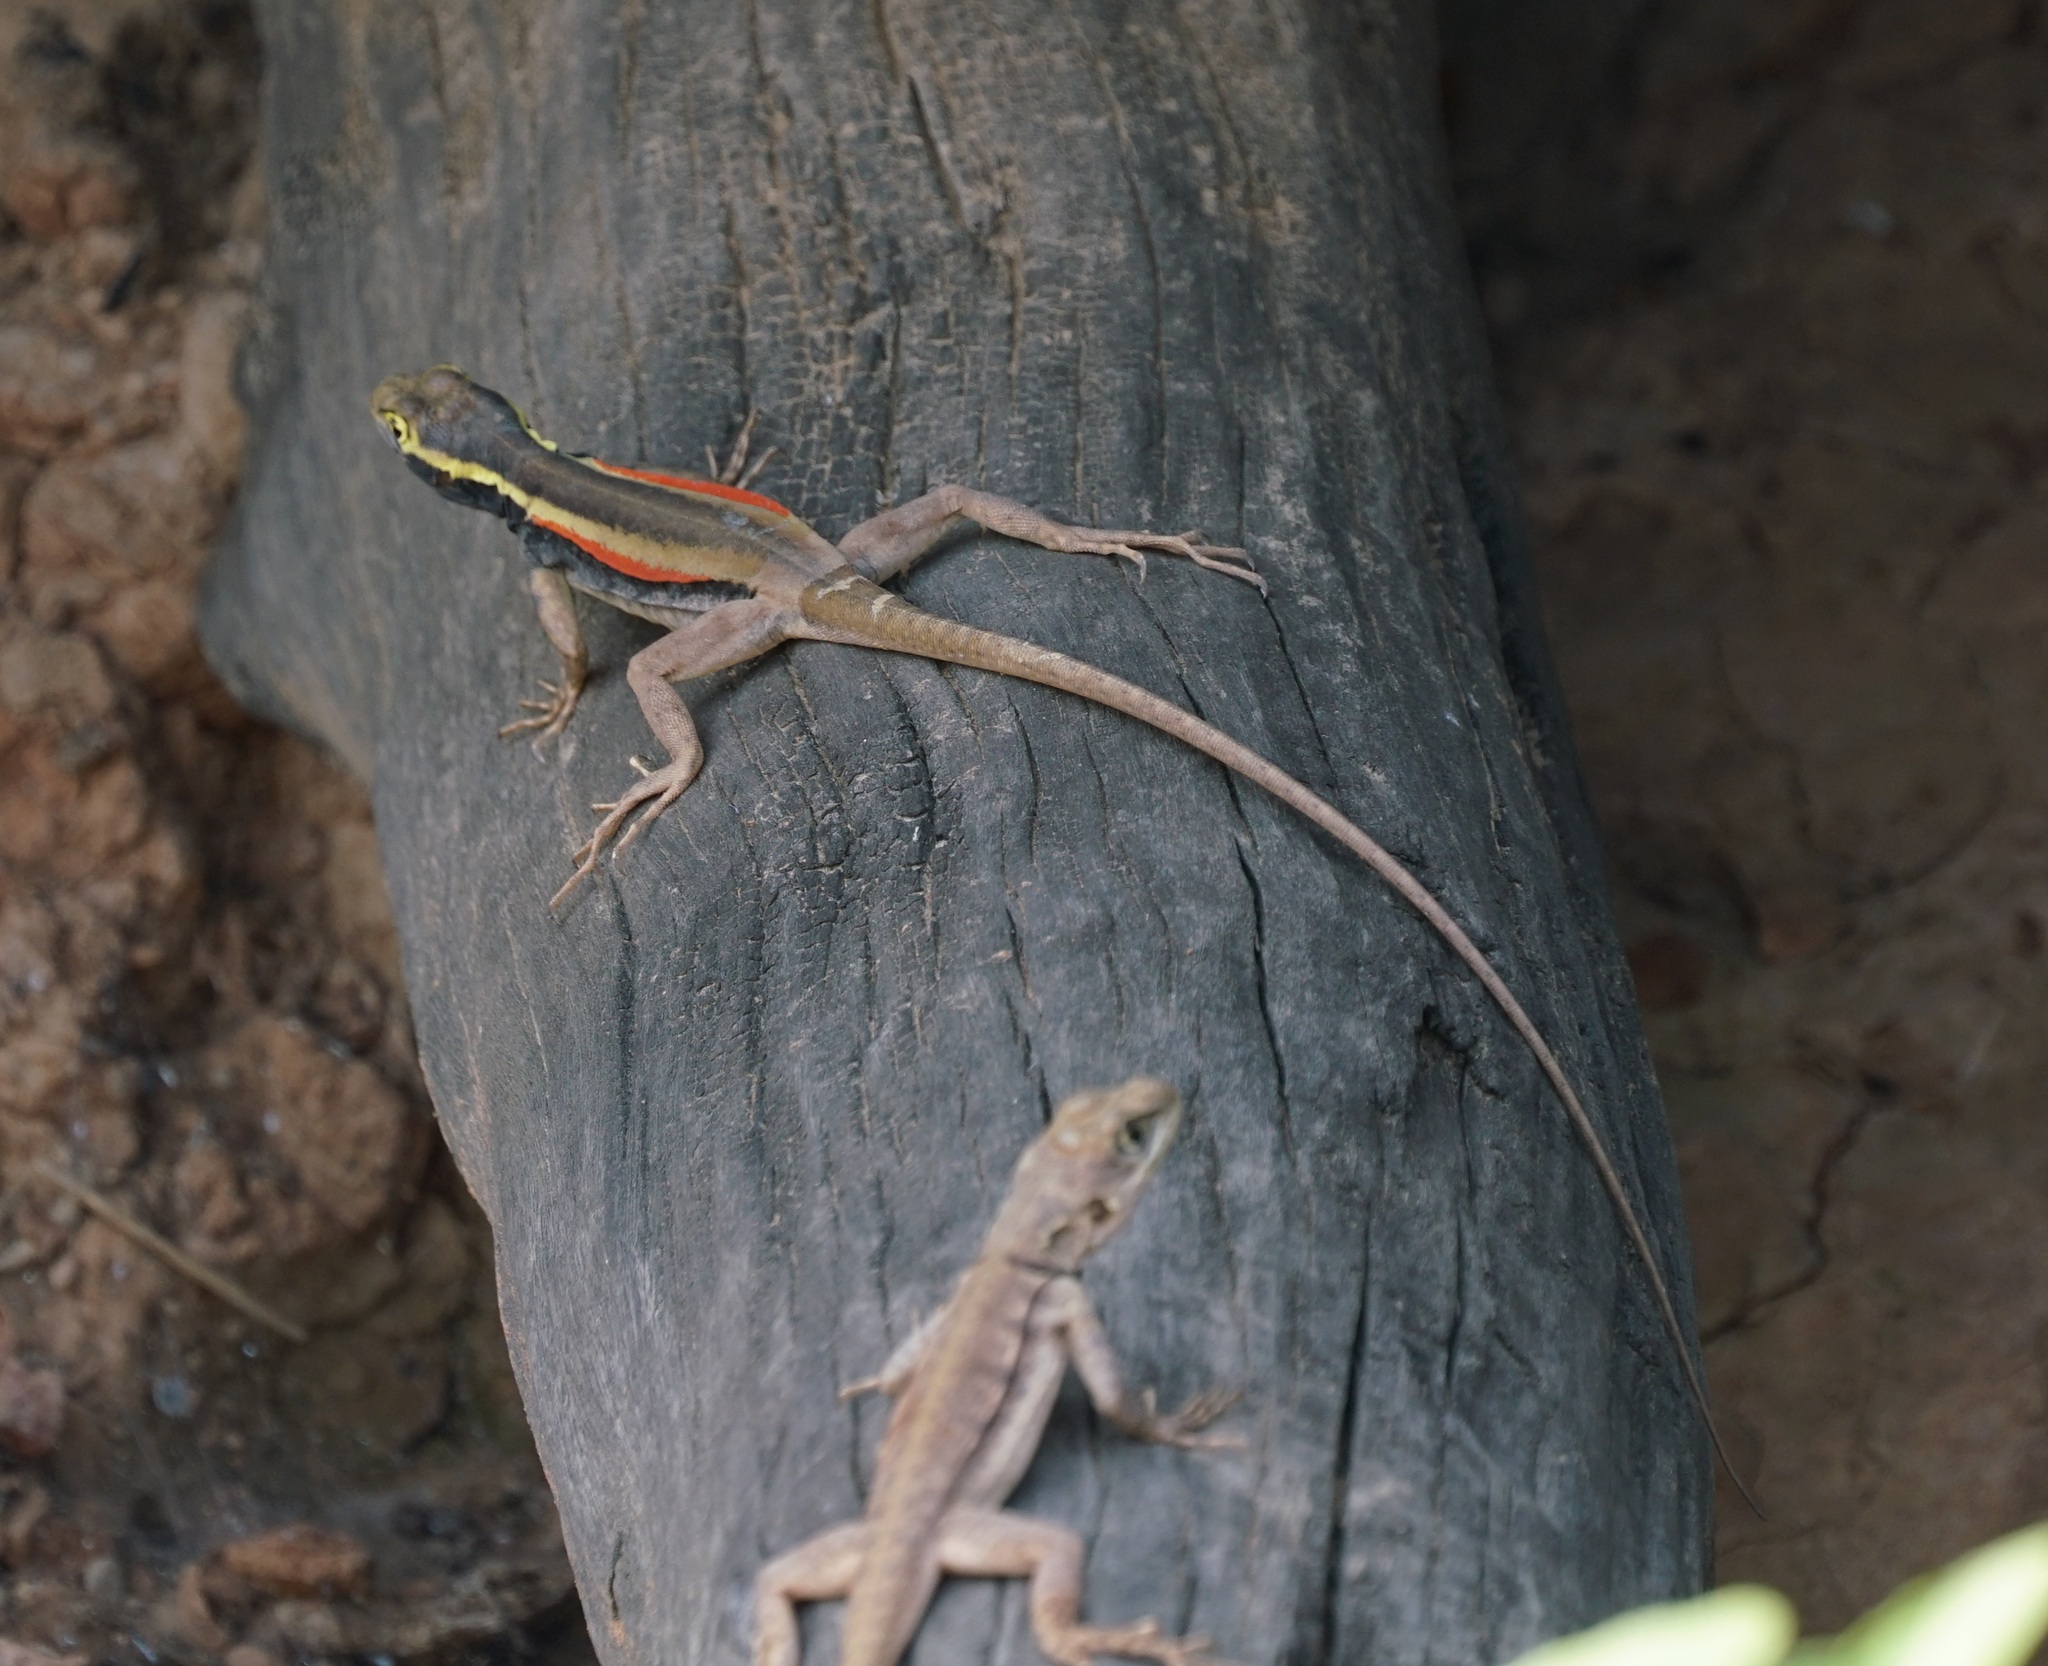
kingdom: Animalia
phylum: Chordata
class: Squamata
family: Tropiduridae
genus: Tropidurus
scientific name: Tropidurus melanopleurus
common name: Black lava lizard
